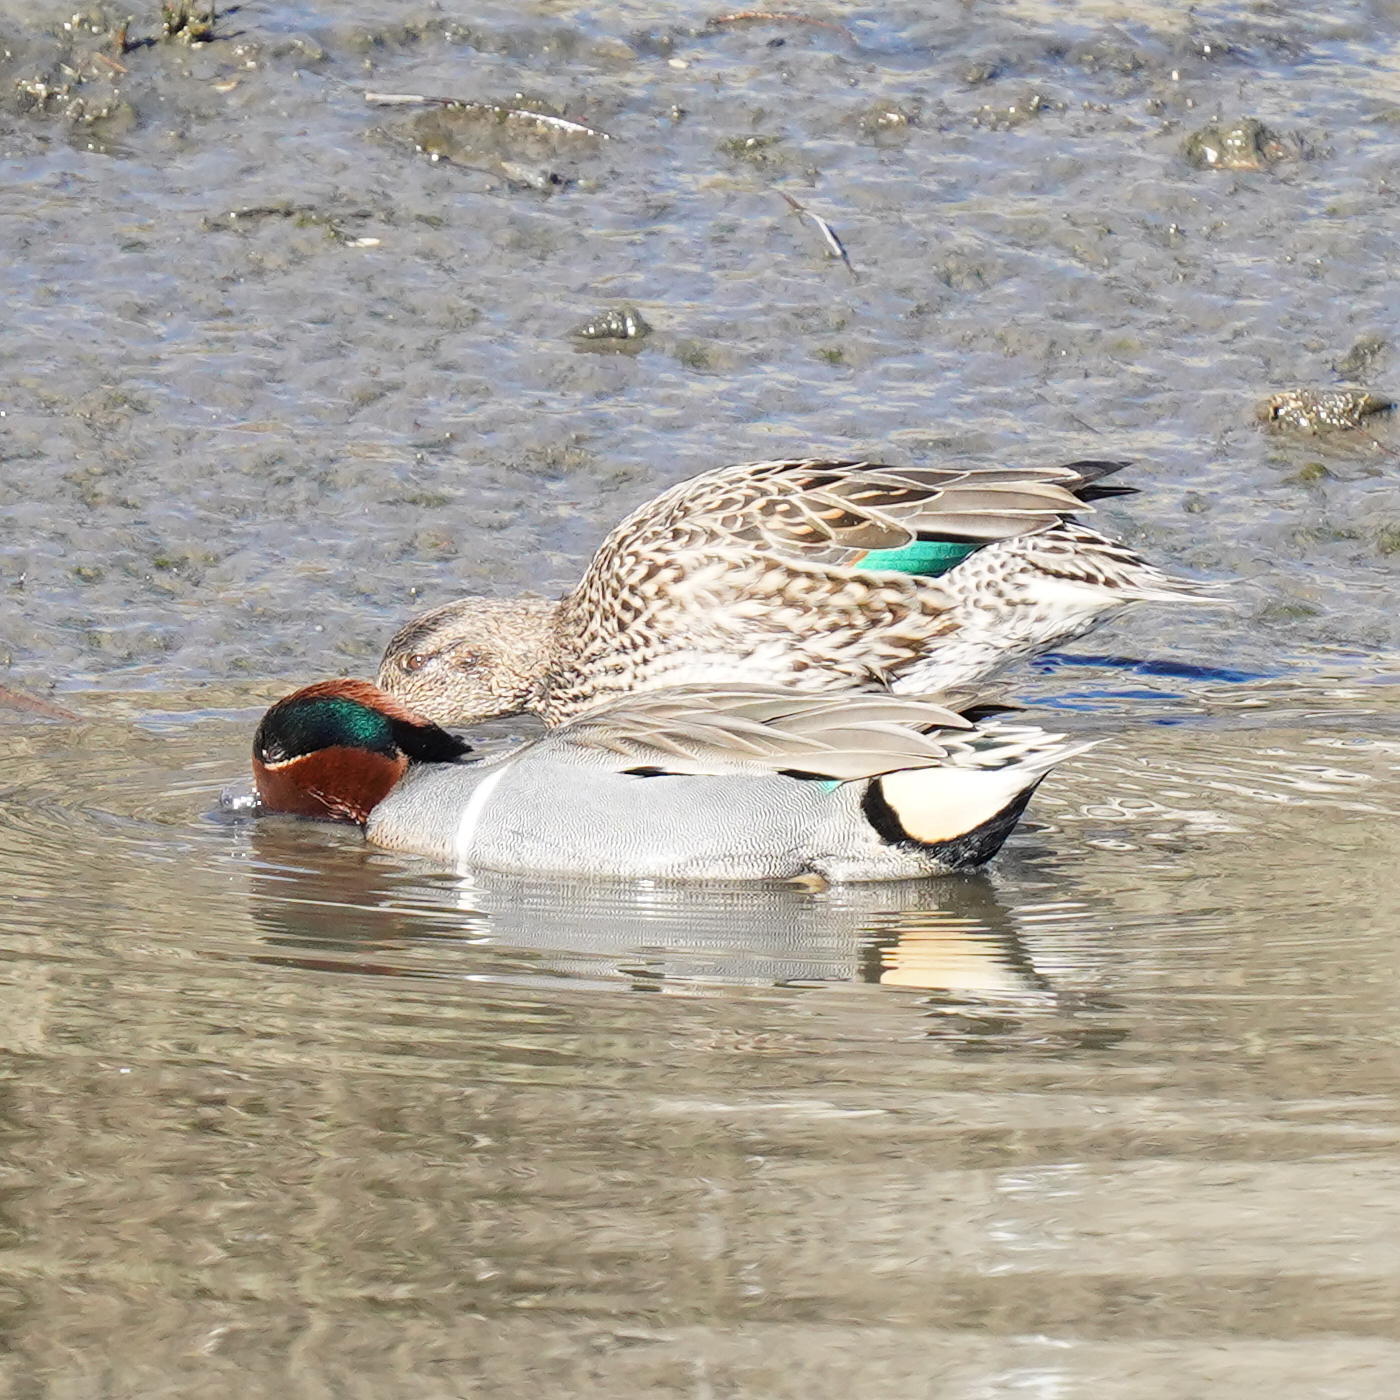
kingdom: Animalia
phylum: Chordata
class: Aves
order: Anseriformes
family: Anatidae
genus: Anas
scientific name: Anas crecca
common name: Eurasian teal
